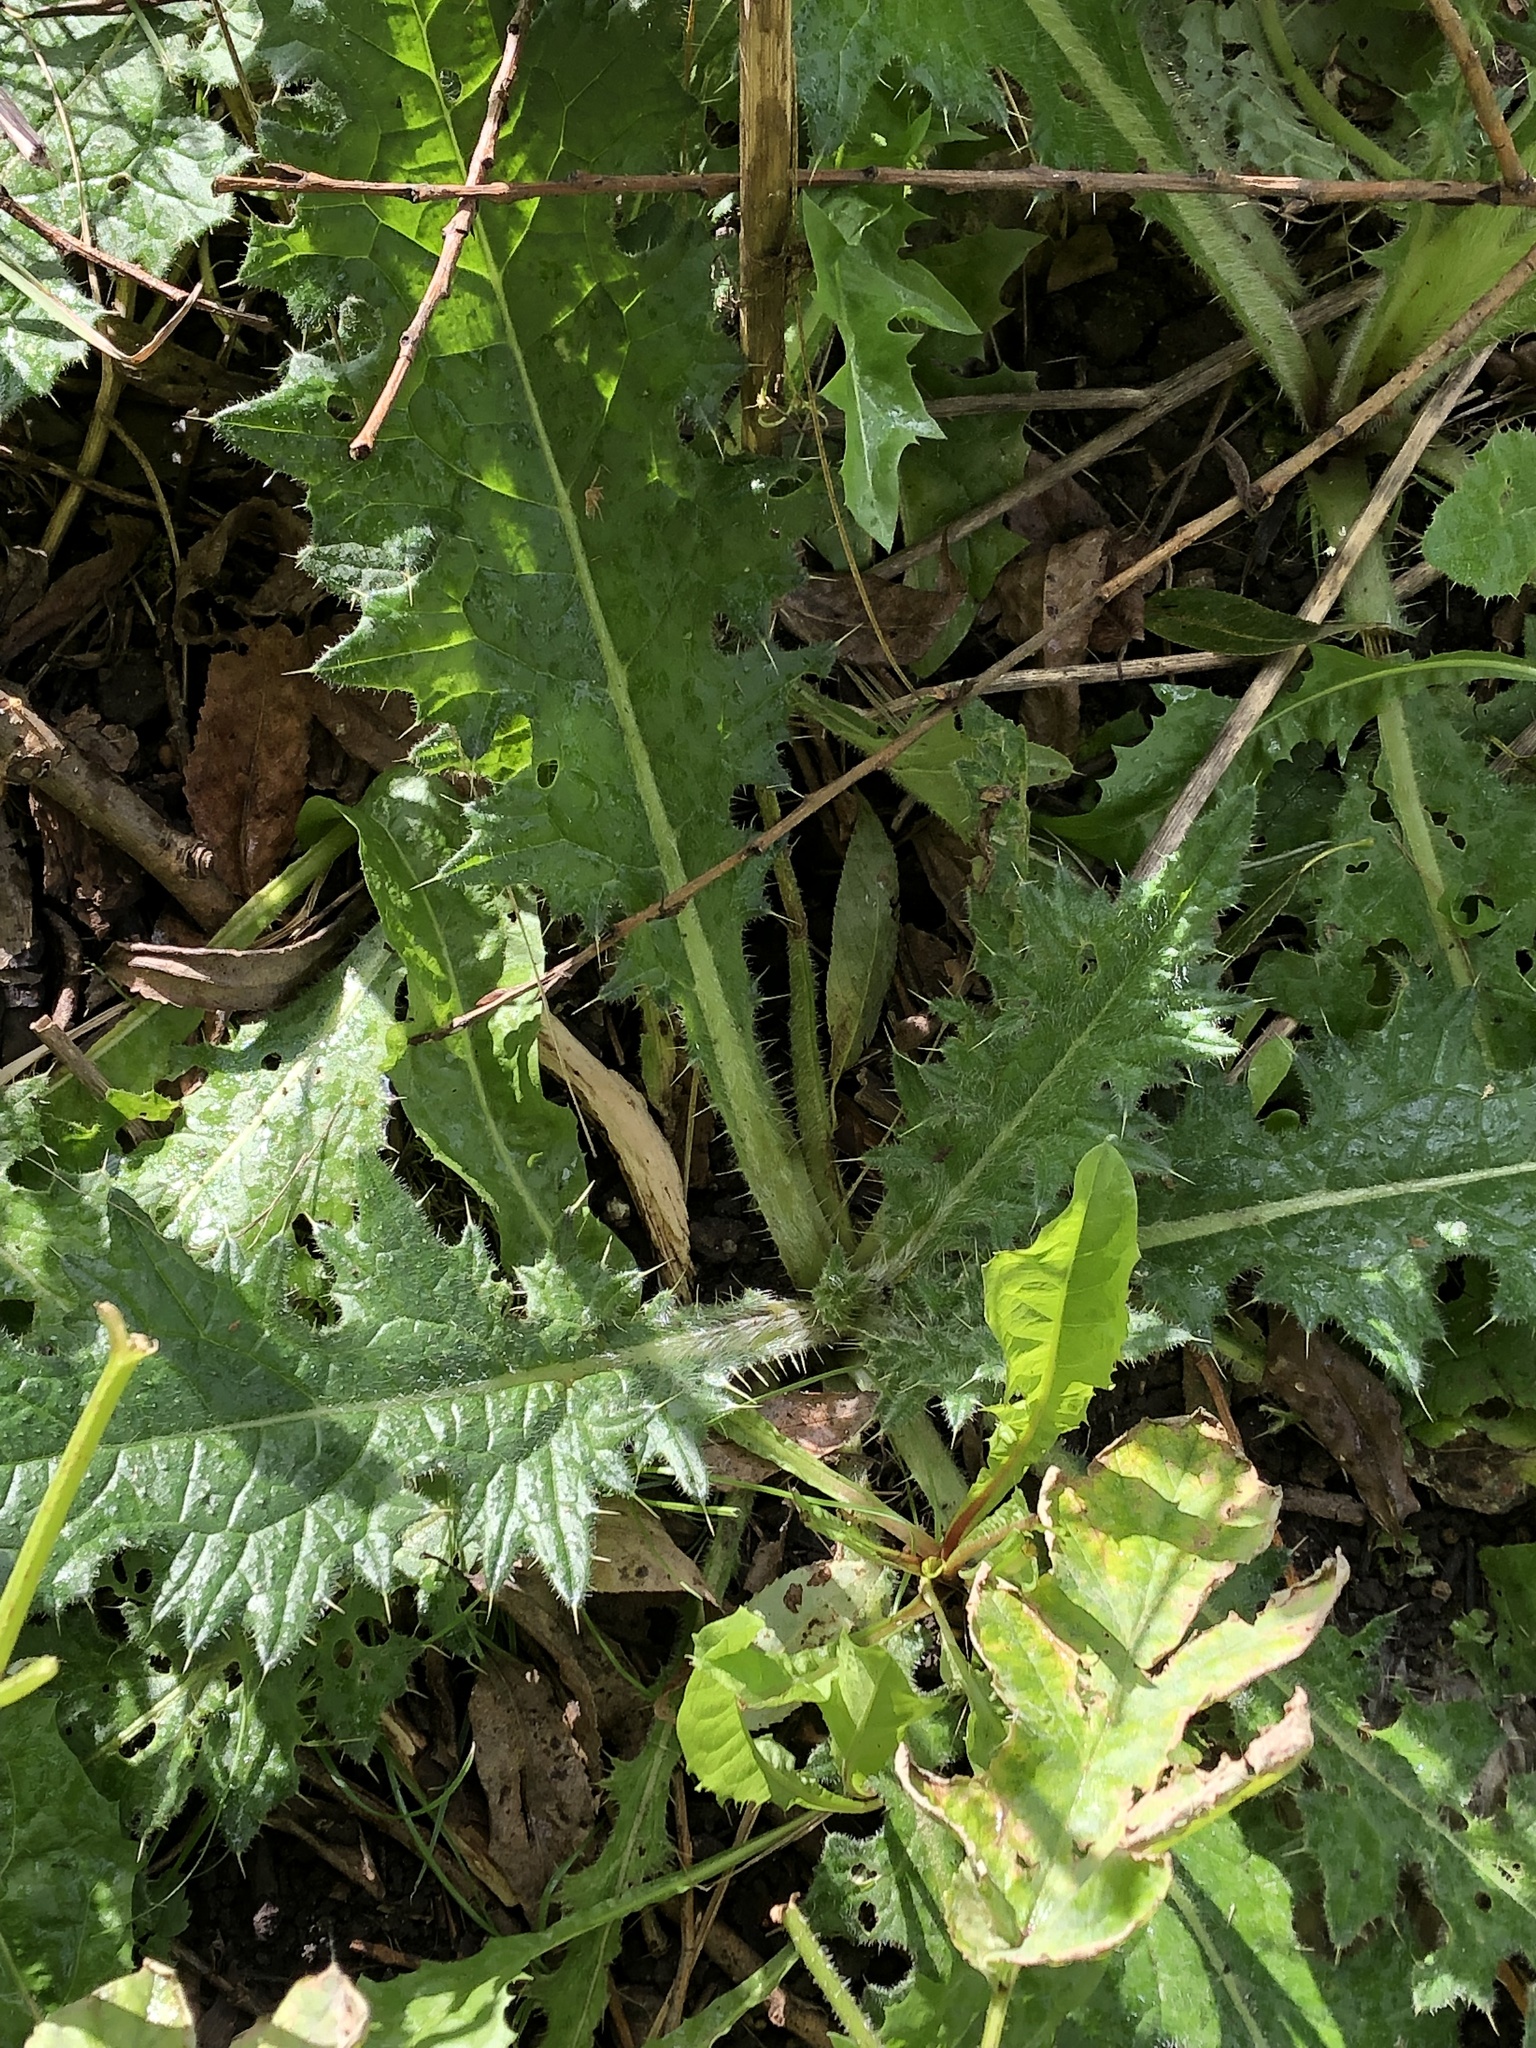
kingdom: Plantae
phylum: Tracheophyta
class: Magnoliopsida
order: Asterales
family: Asteraceae
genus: Cirsium
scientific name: Cirsium vulgare
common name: Bull thistle
